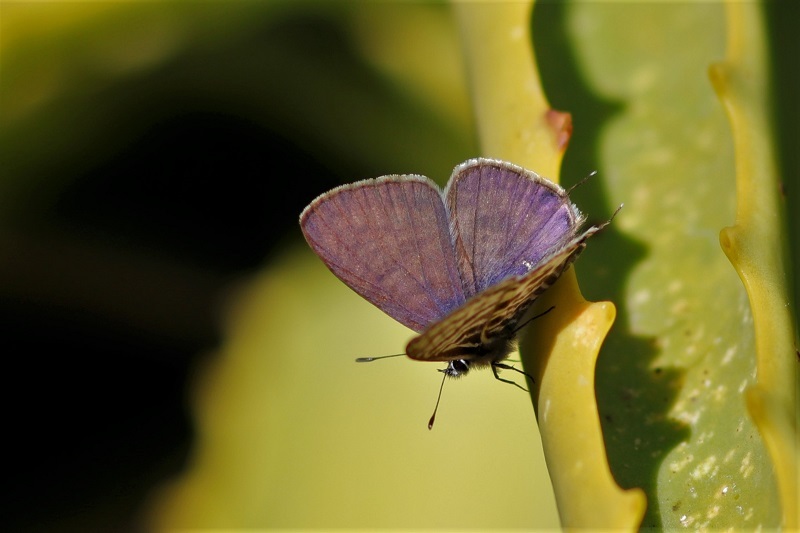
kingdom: Animalia
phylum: Arthropoda
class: Insecta
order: Lepidoptera
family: Lycaenidae
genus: Leptotes
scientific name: Leptotes
